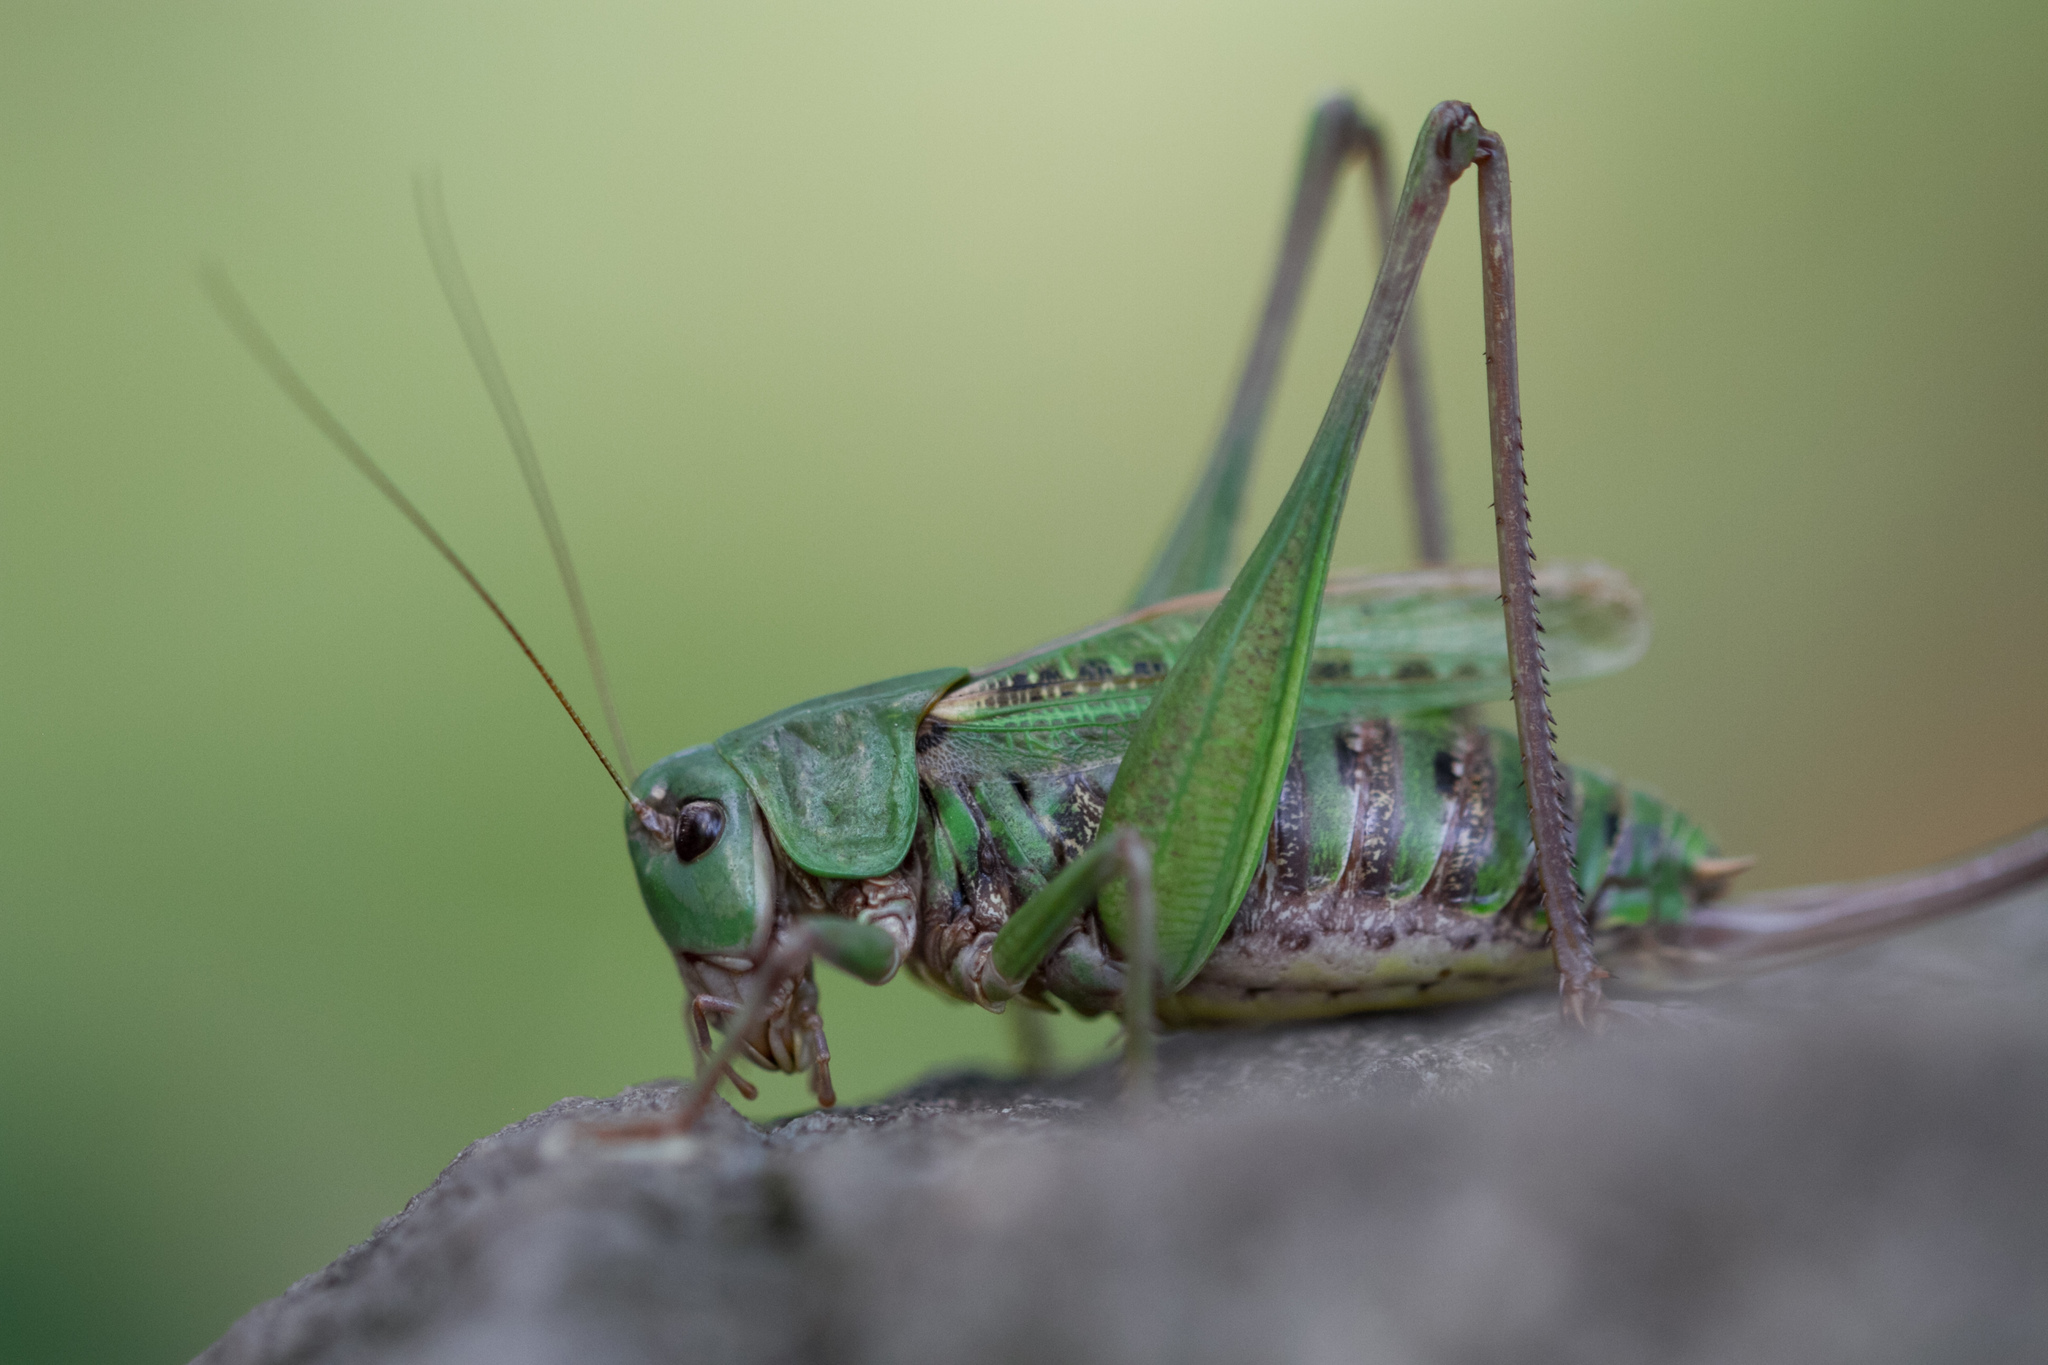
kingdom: Animalia
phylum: Arthropoda
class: Insecta
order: Orthoptera
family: Tettigoniidae
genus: Decticus
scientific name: Decticus verrucivorus
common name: Wart-biter
